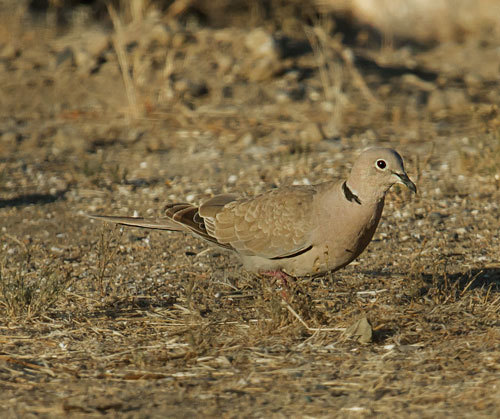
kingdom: Animalia
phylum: Chordata
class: Aves
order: Columbiformes
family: Columbidae
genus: Streptopelia
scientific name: Streptopelia decaocto
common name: Eurasian collared dove
